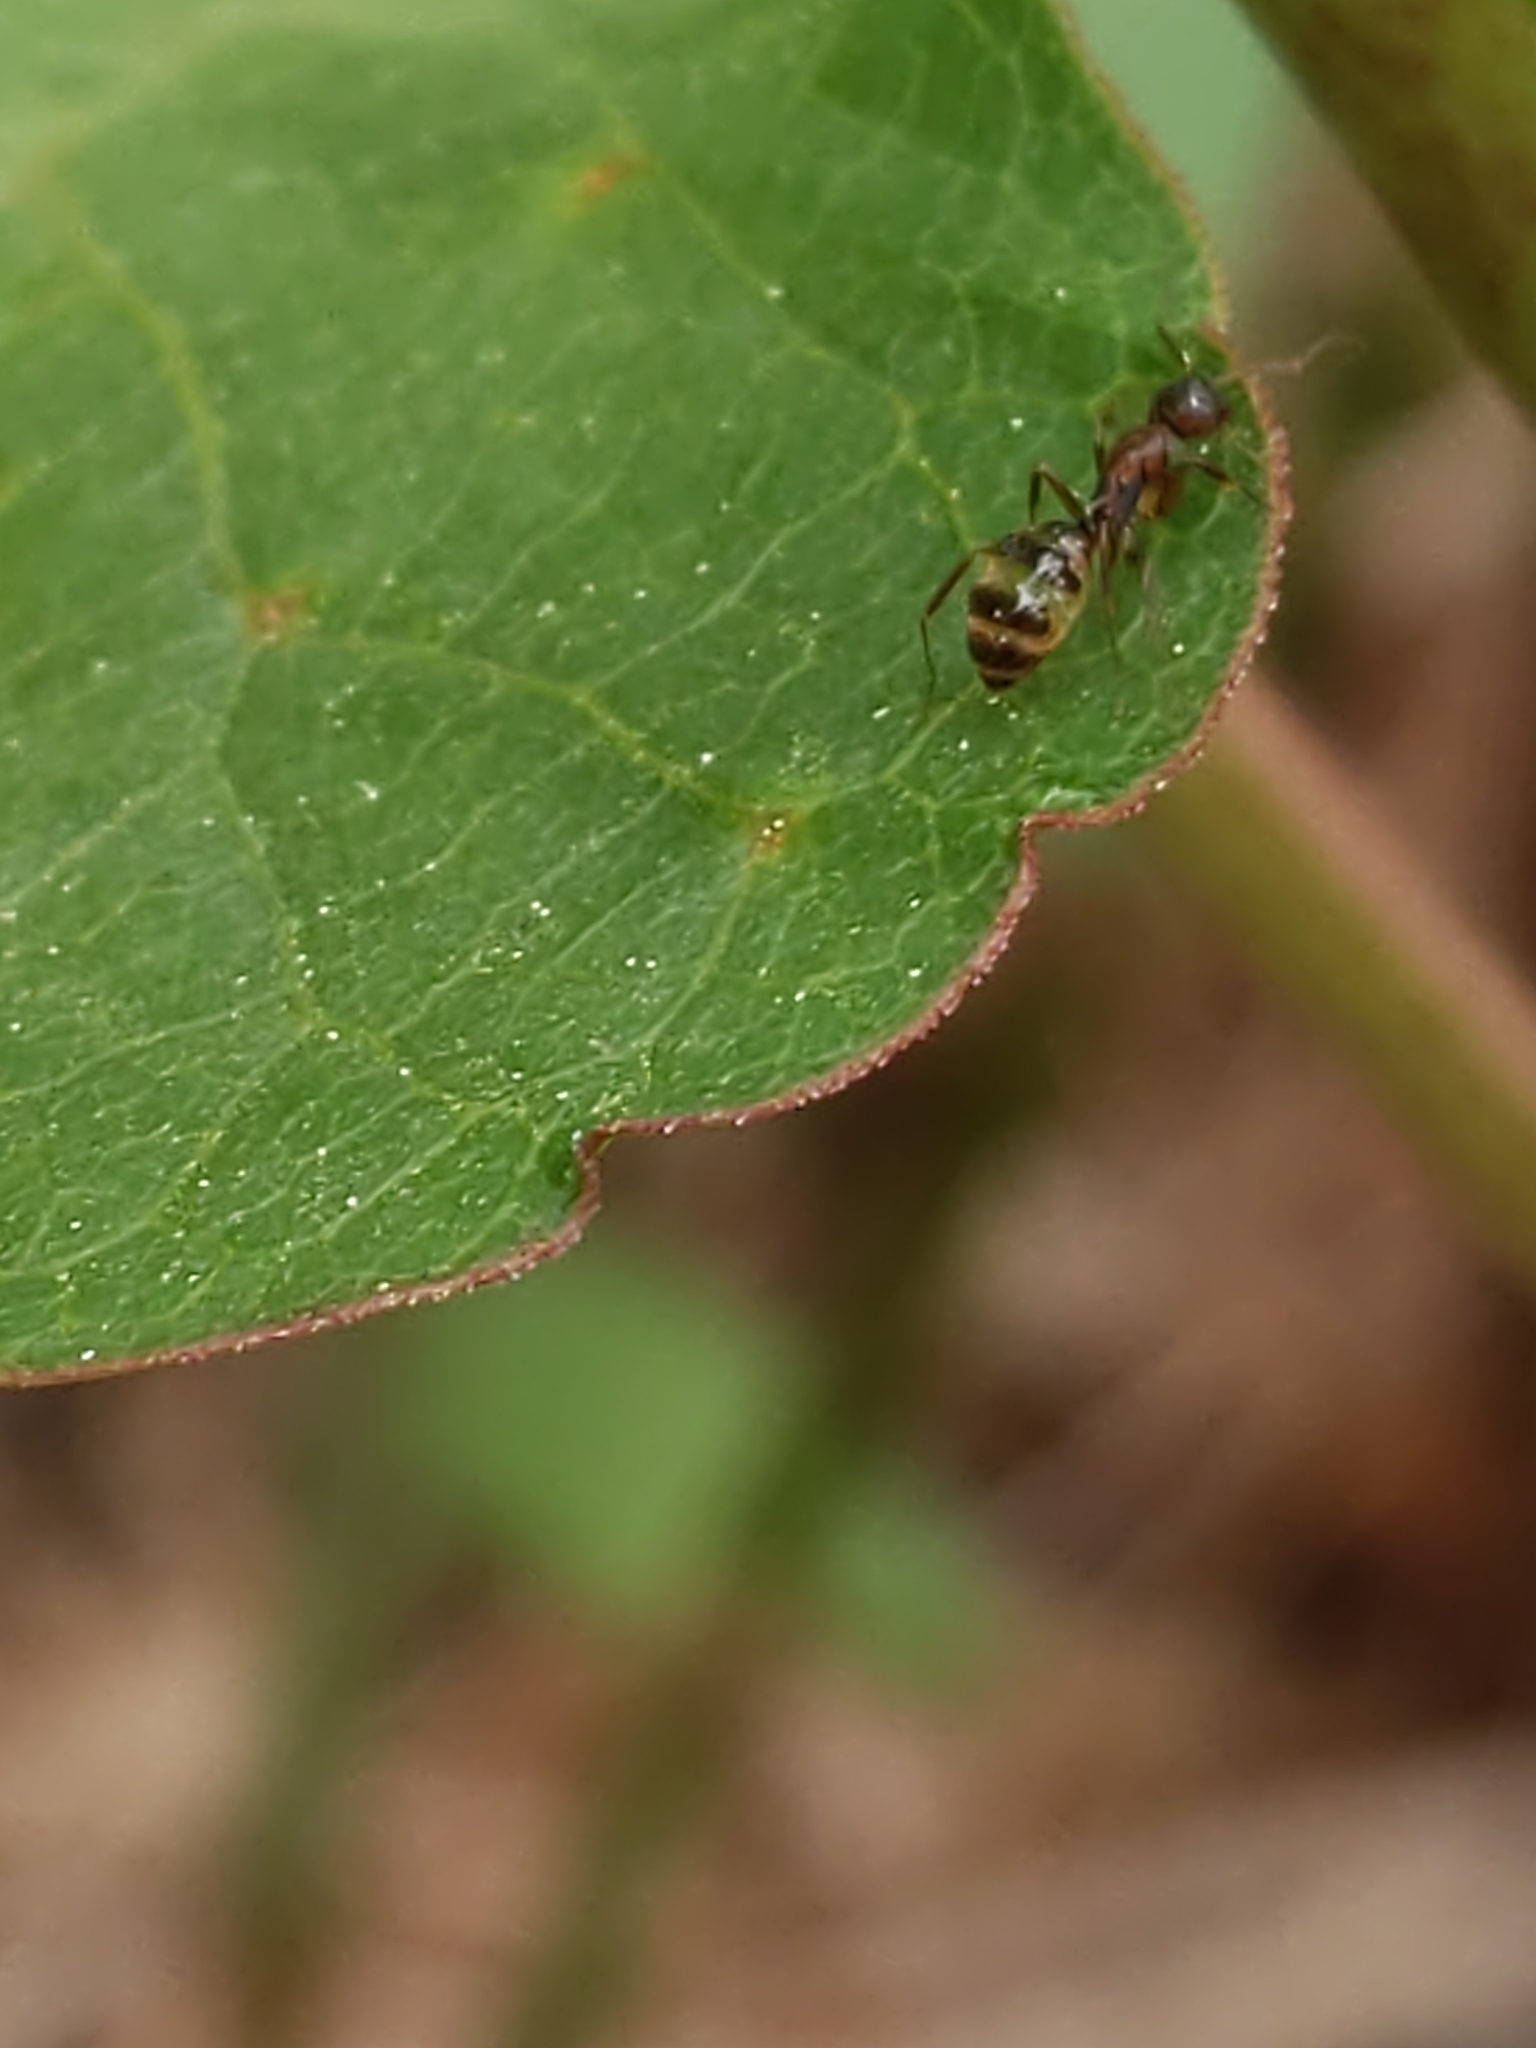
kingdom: Animalia
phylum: Arthropoda
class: Insecta
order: Hymenoptera
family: Formicidae
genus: Camponotus
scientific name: Camponotus subbarbatus
